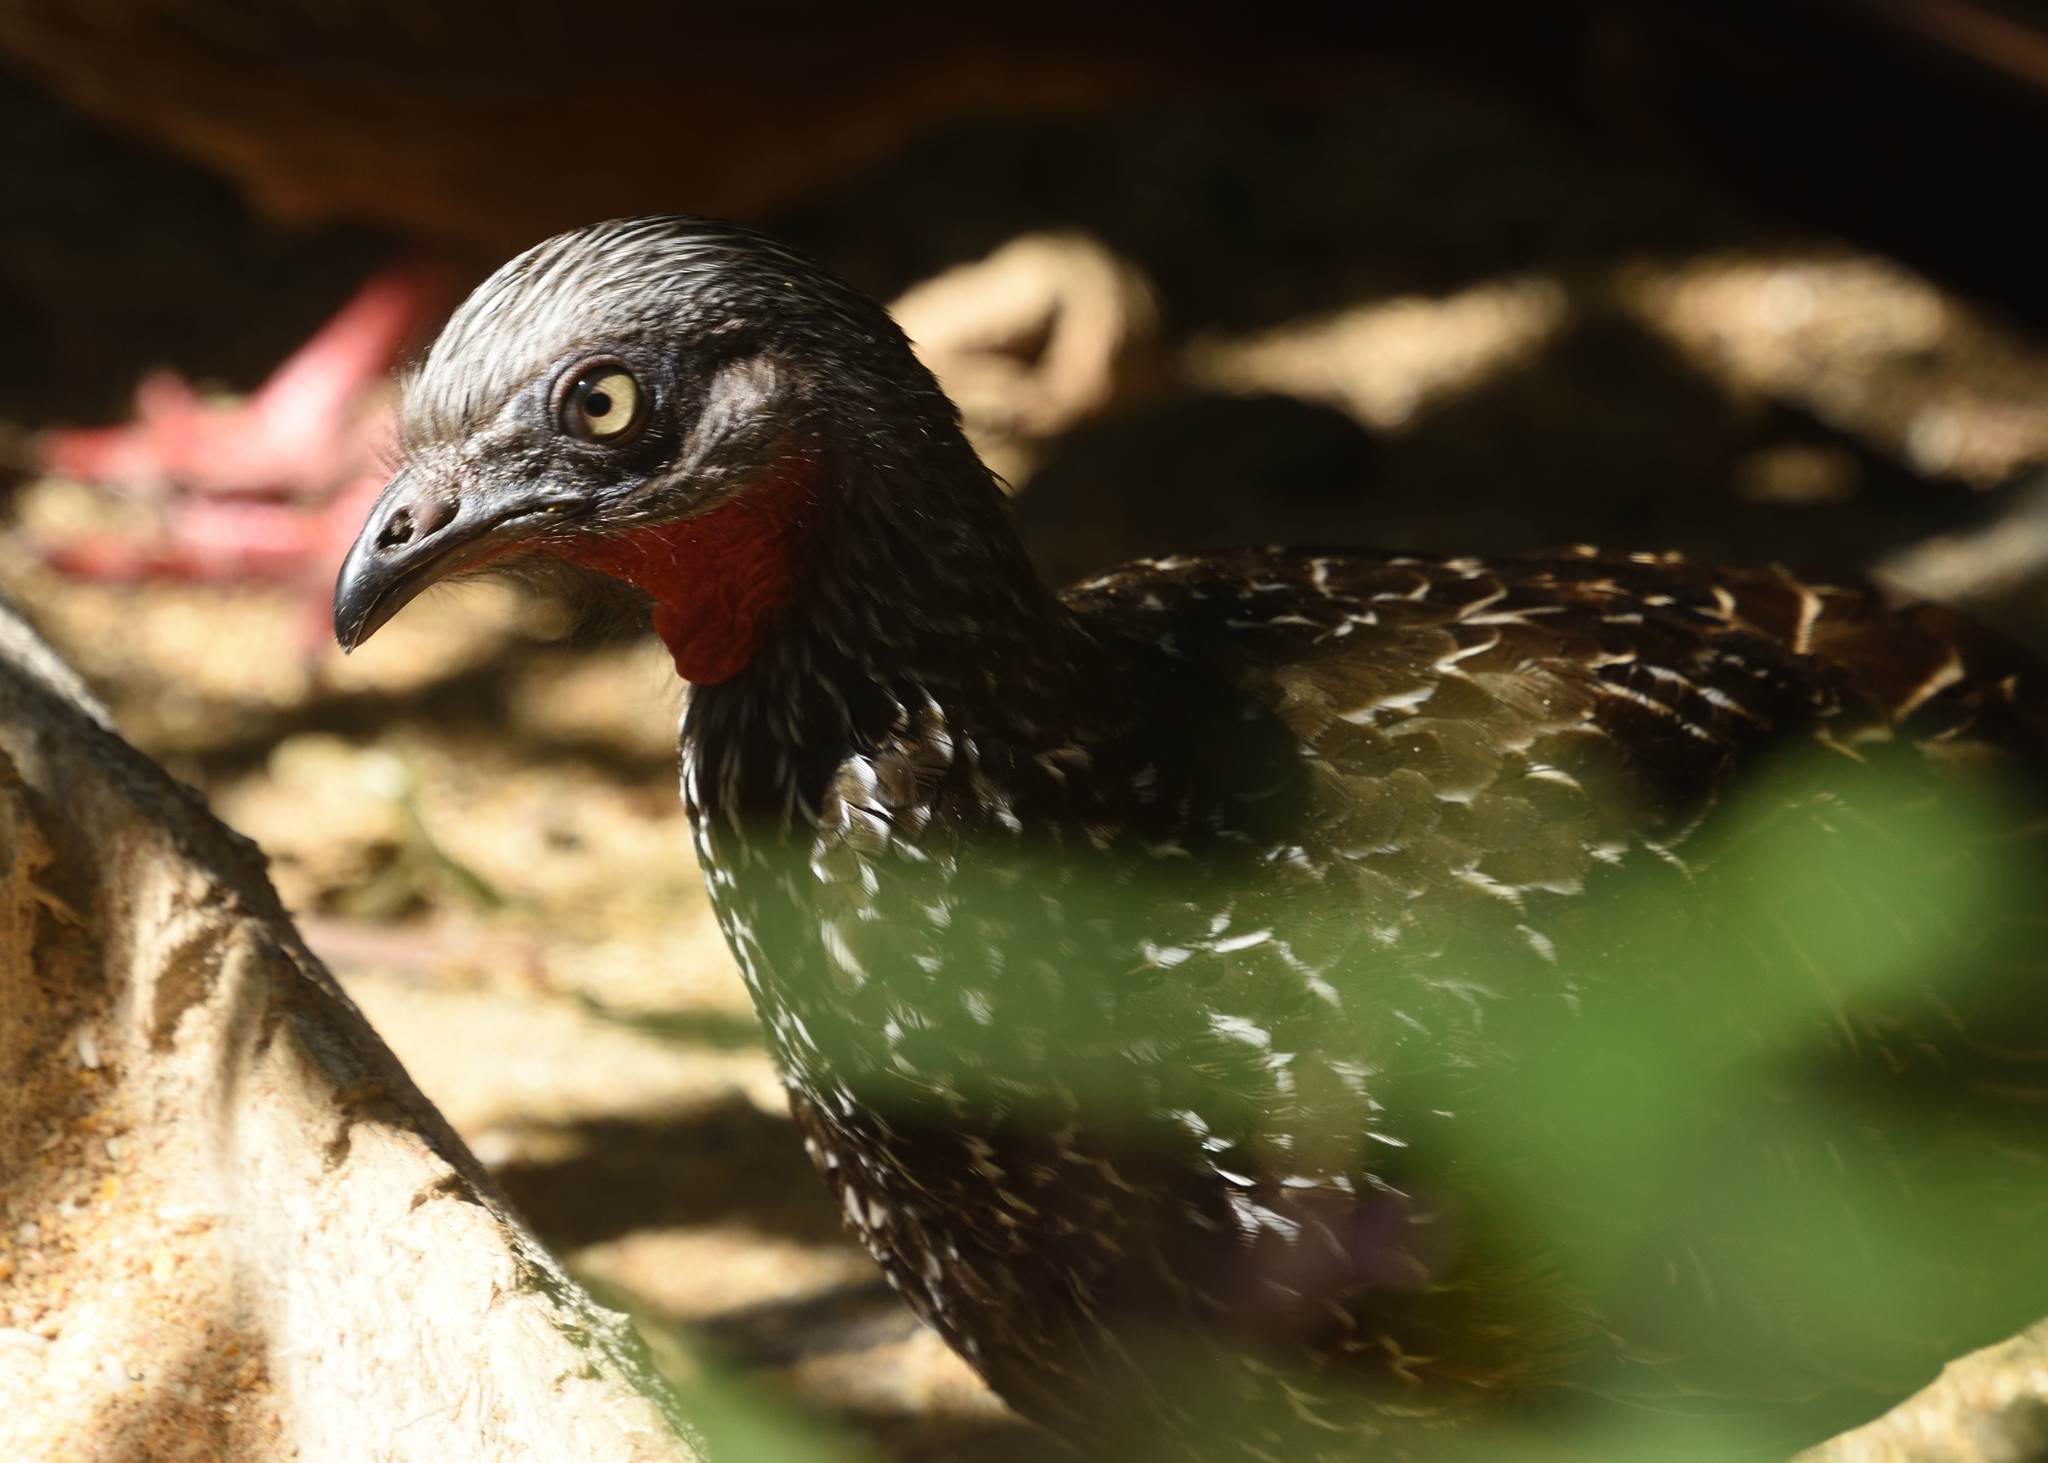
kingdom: Animalia
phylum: Chordata
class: Aves
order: Galliformes
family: Cracidae
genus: Penelope
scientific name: Penelope argyrotis
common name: Band-tailed guan
